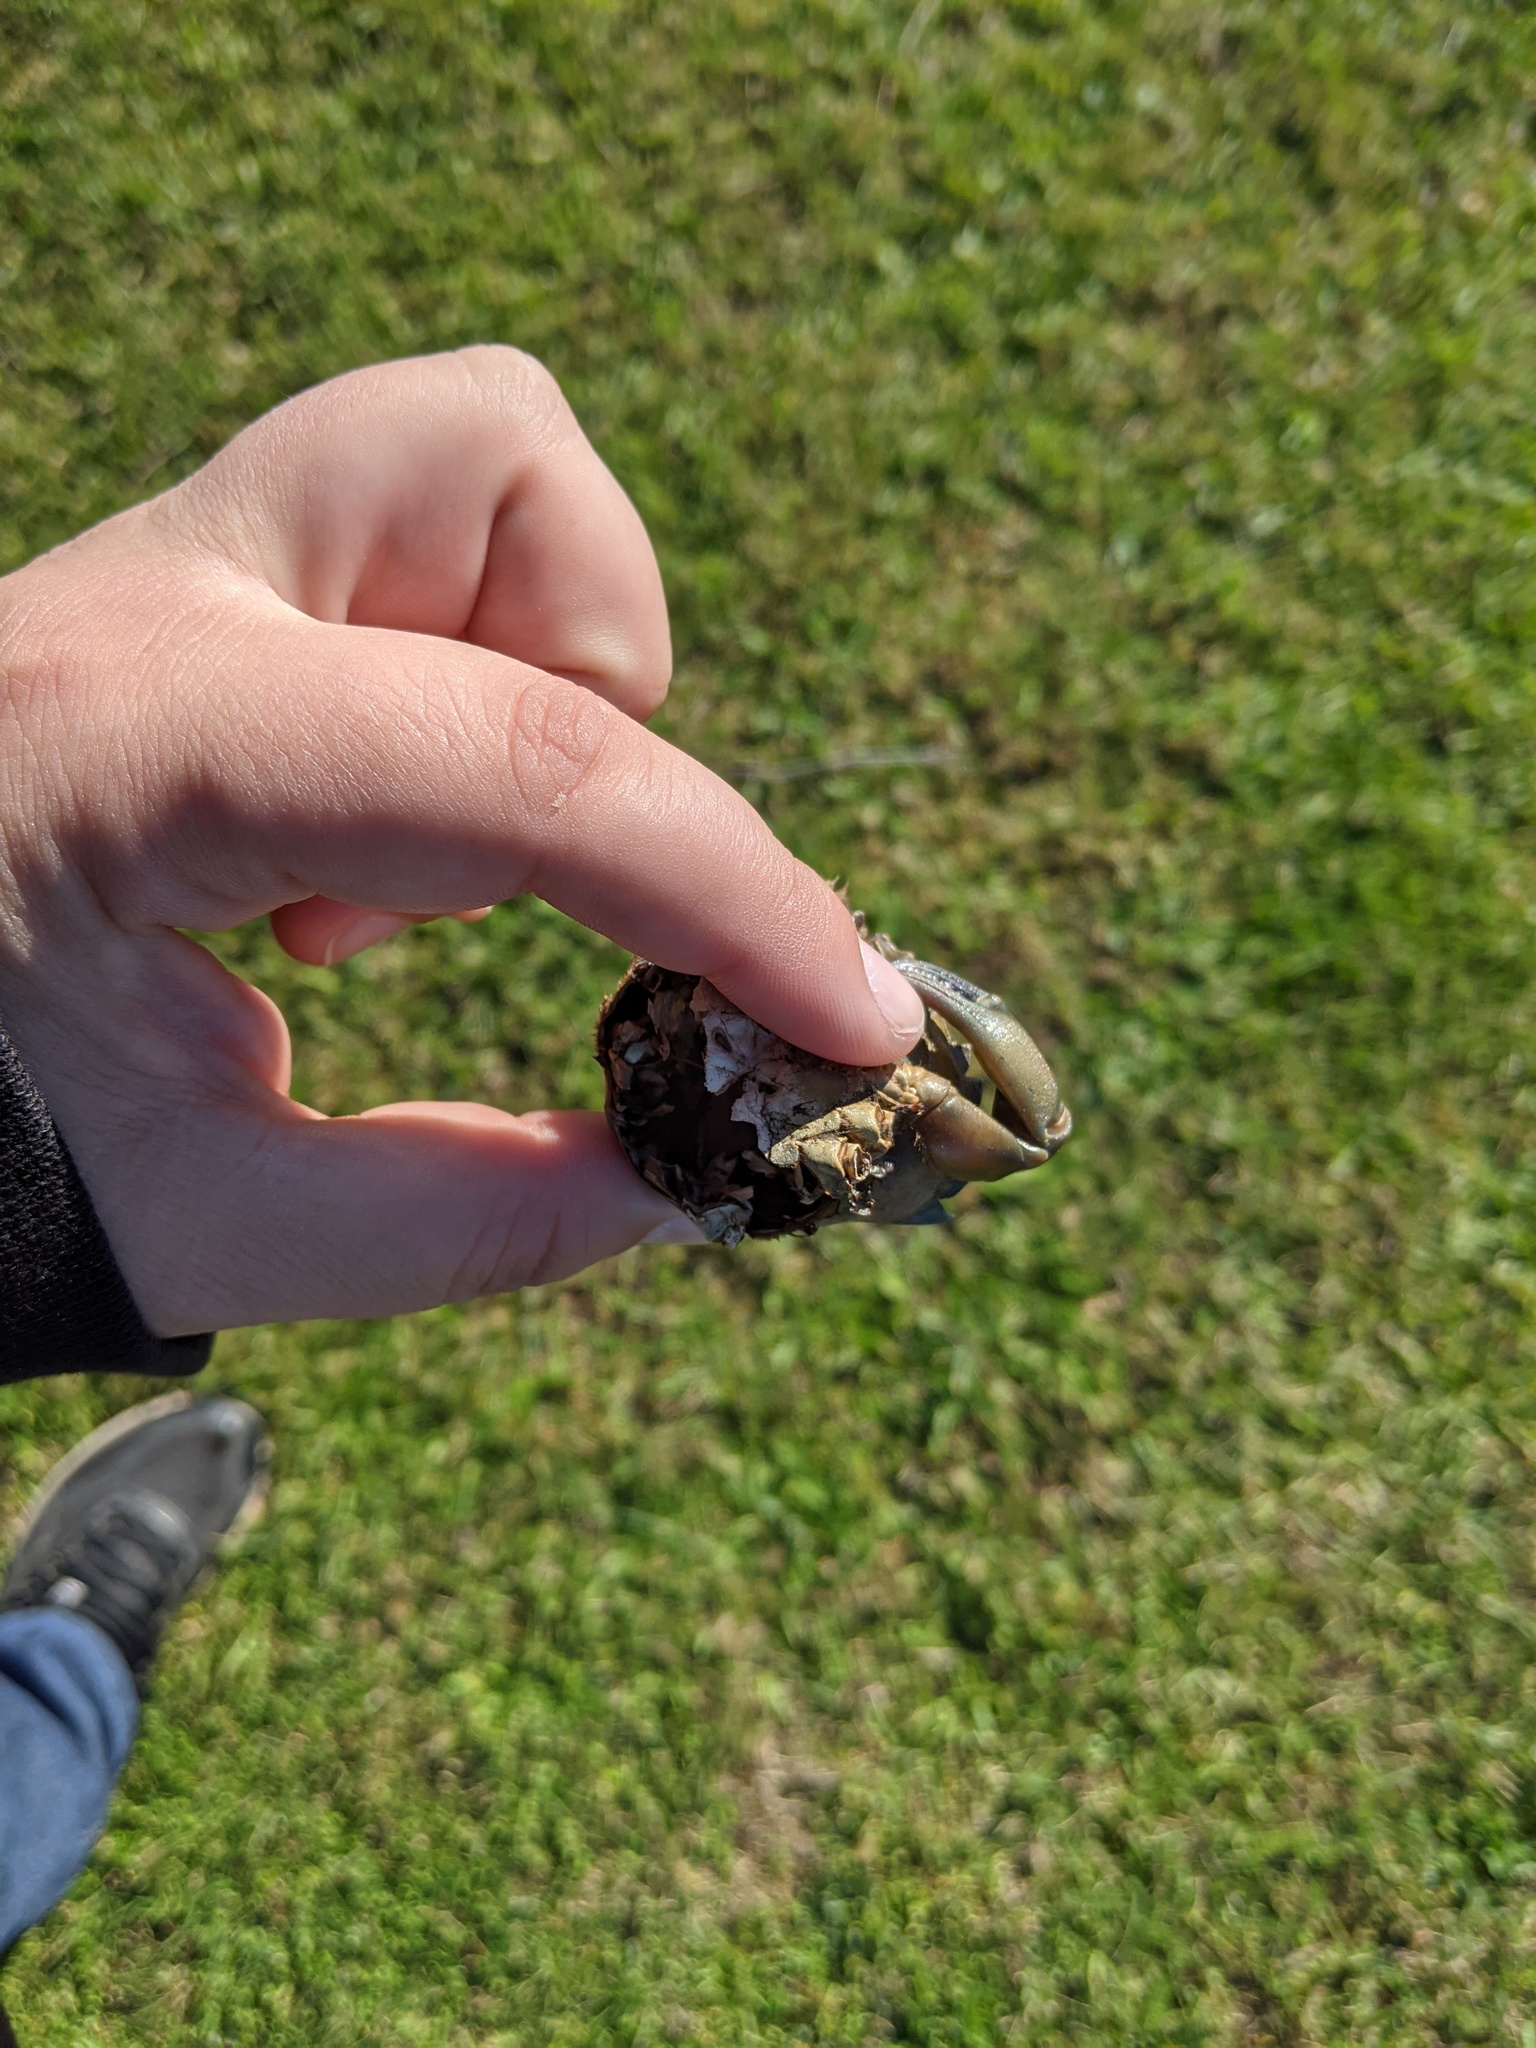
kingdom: Animalia
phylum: Arthropoda
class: Malacostraca
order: Decapoda
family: Carcinidae
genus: Carcinus
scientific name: Carcinus maenas
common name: European green crab
